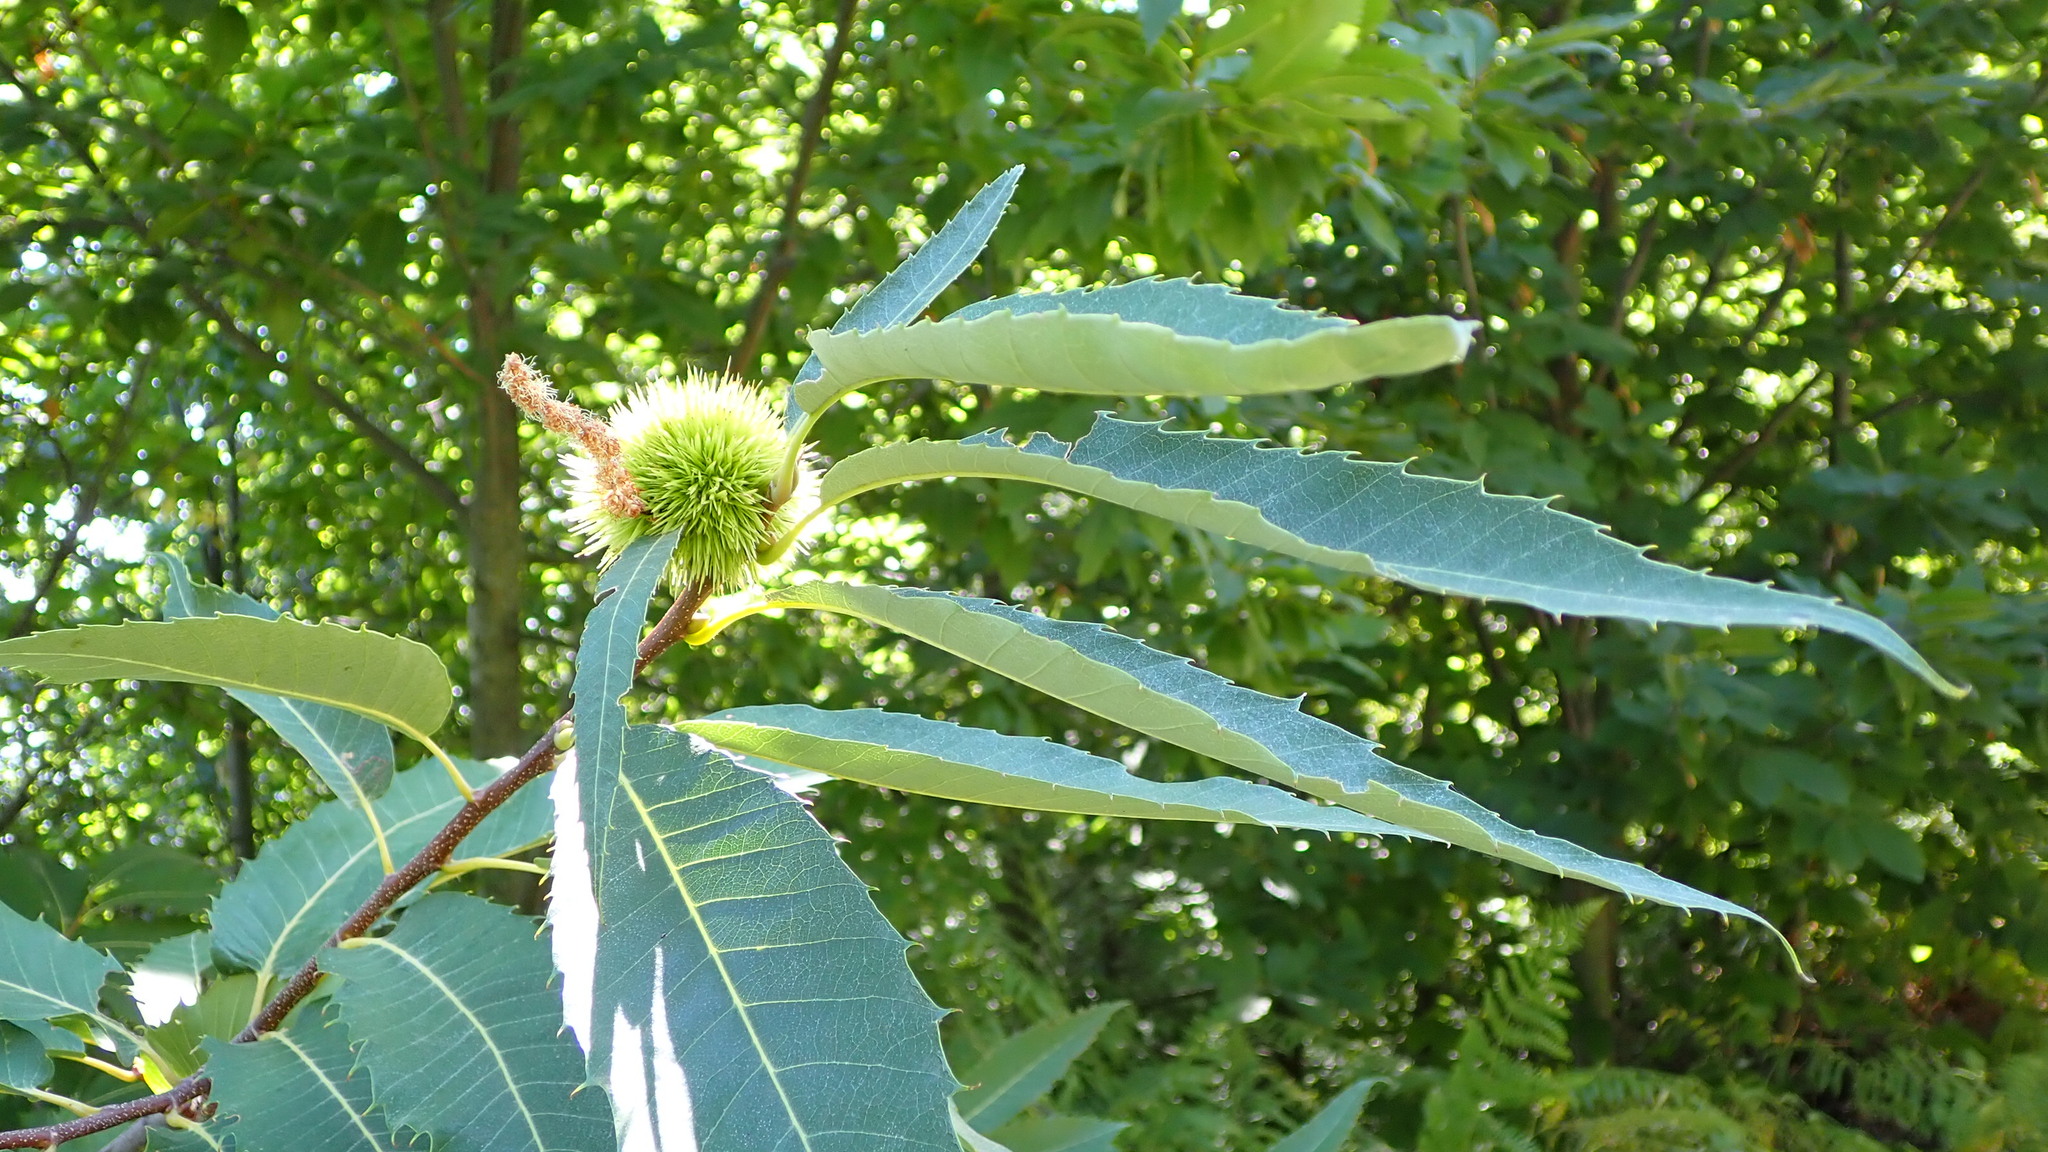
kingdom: Plantae
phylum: Tracheophyta
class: Magnoliopsida
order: Fagales
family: Fagaceae
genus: Castanea
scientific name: Castanea sativa
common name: Sweet chestnut
